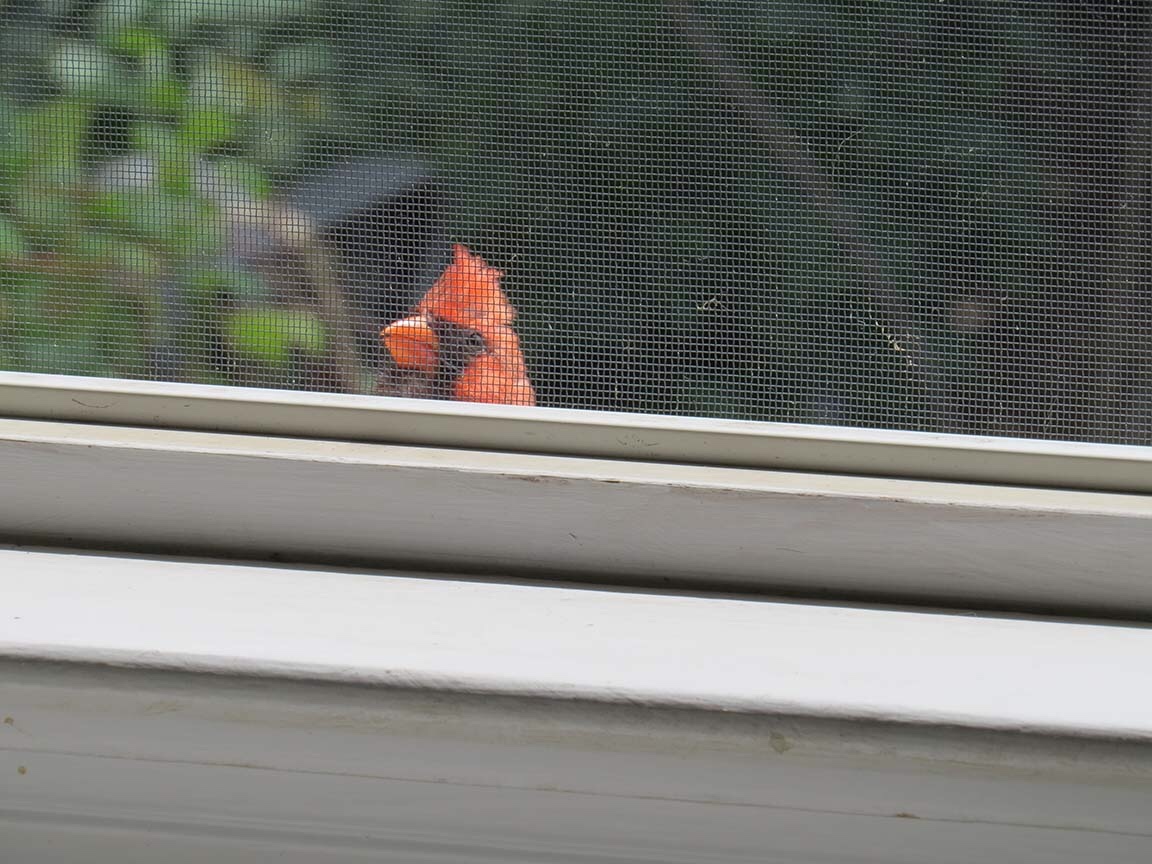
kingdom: Animalia
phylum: Chordata
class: Aves
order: Passeriformes
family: Cardinalidae
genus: Cardinalis
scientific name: Cardinalis cardinalis
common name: Northern cardinal
